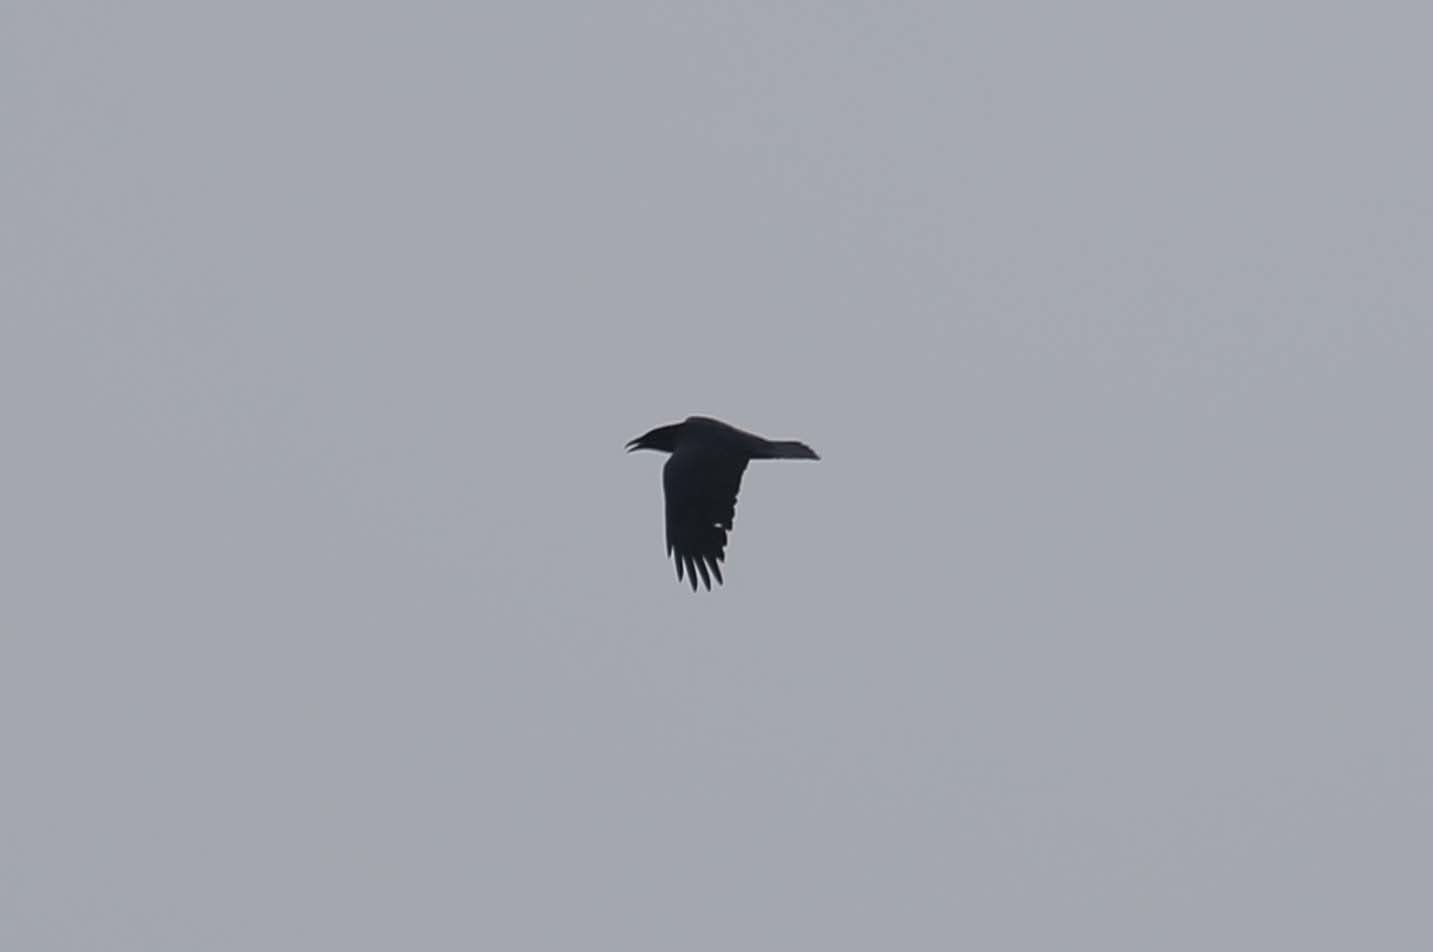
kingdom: Animalia
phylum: Chordata
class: Aves
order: Passeriformes
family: Corvidae
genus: Corvus
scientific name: Corvus brachyrhynchos
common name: American crow
